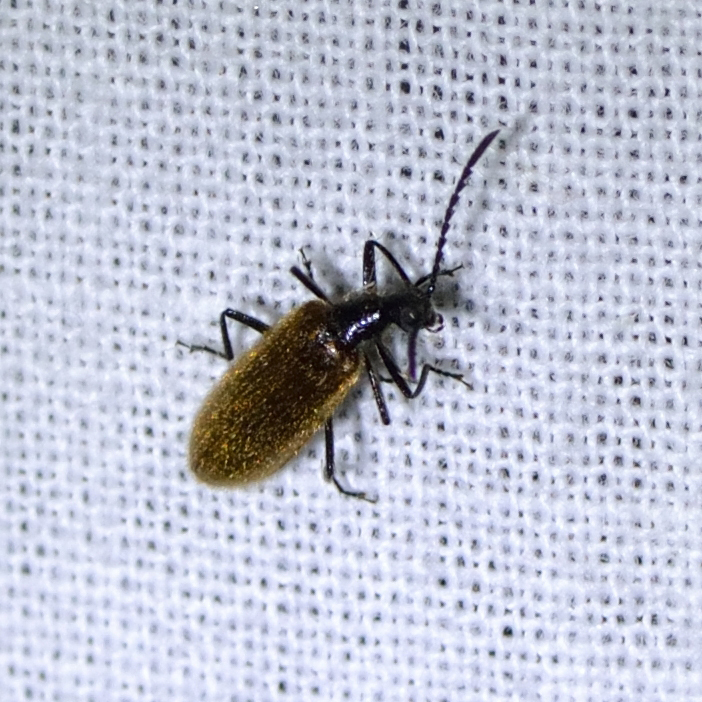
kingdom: Animalia
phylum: Arthropoda
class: Insecta
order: Coleoptera
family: Tenebrionidae
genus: Lagria
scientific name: Lagria hirta
